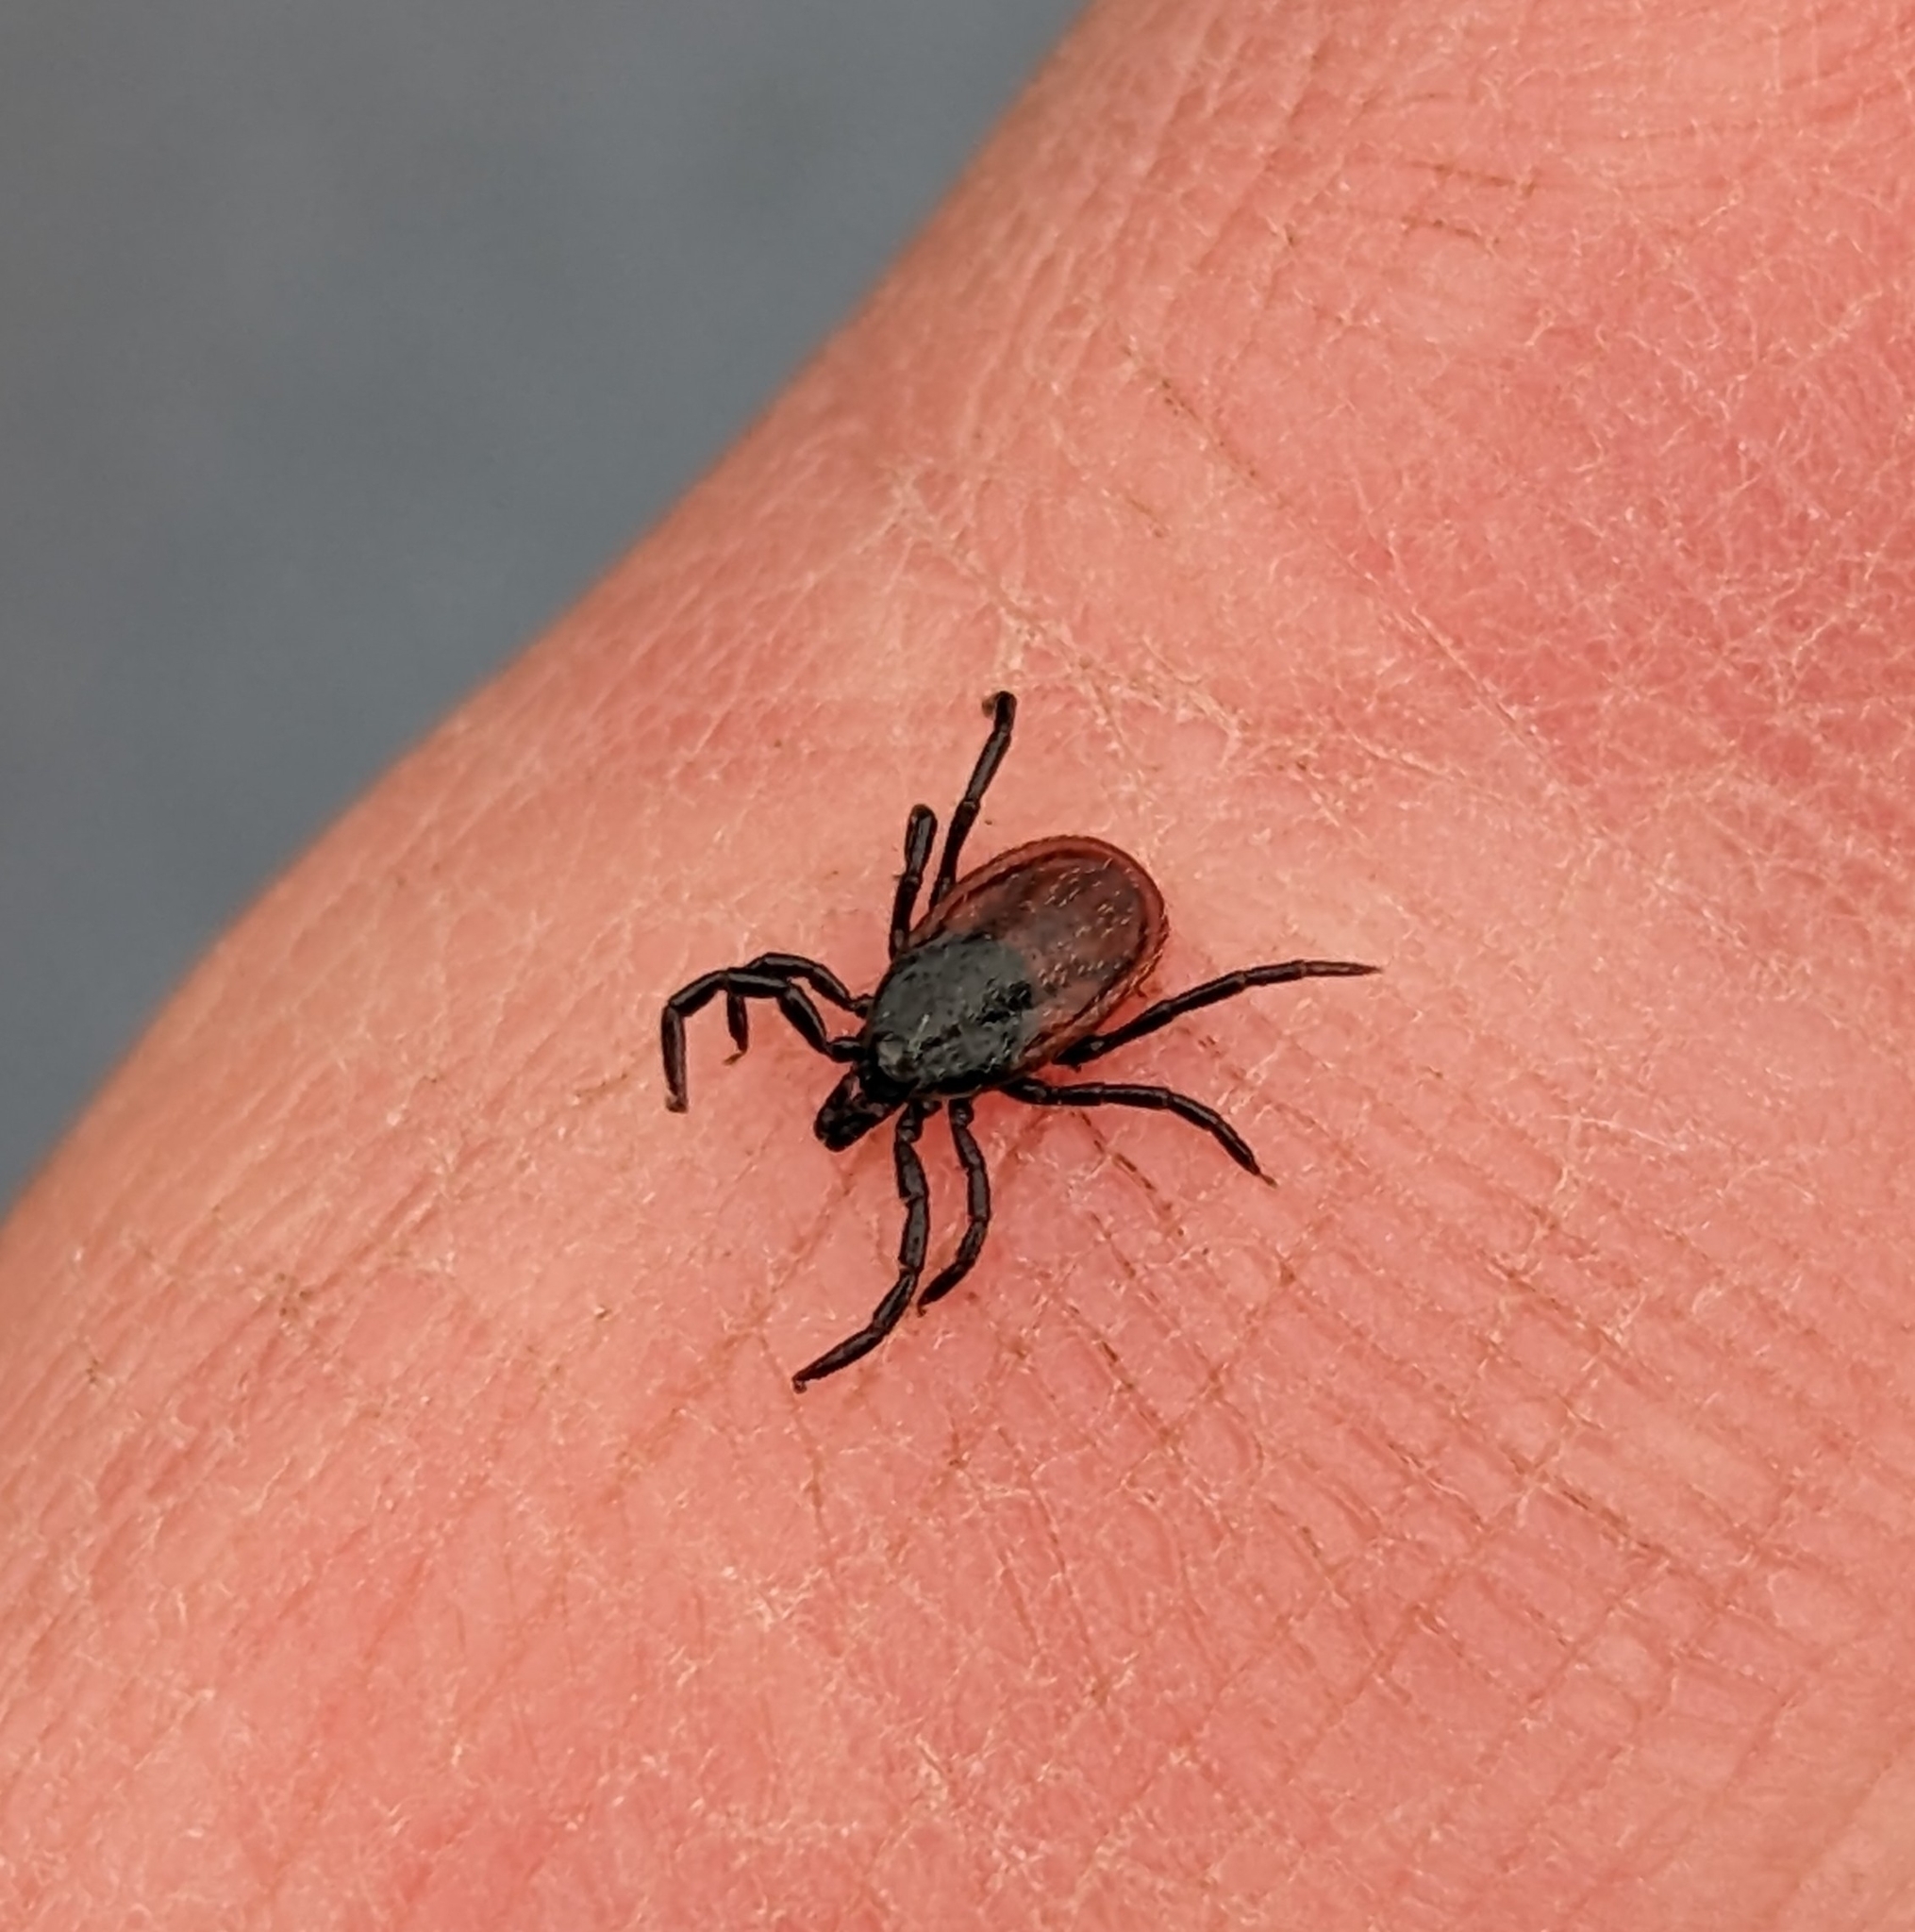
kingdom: Animalia
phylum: Arthropoda
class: Arachnida
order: Ixodida
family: Ixodidae
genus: Ixodes
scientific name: Ixodes pacificus
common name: California black-legged tick
